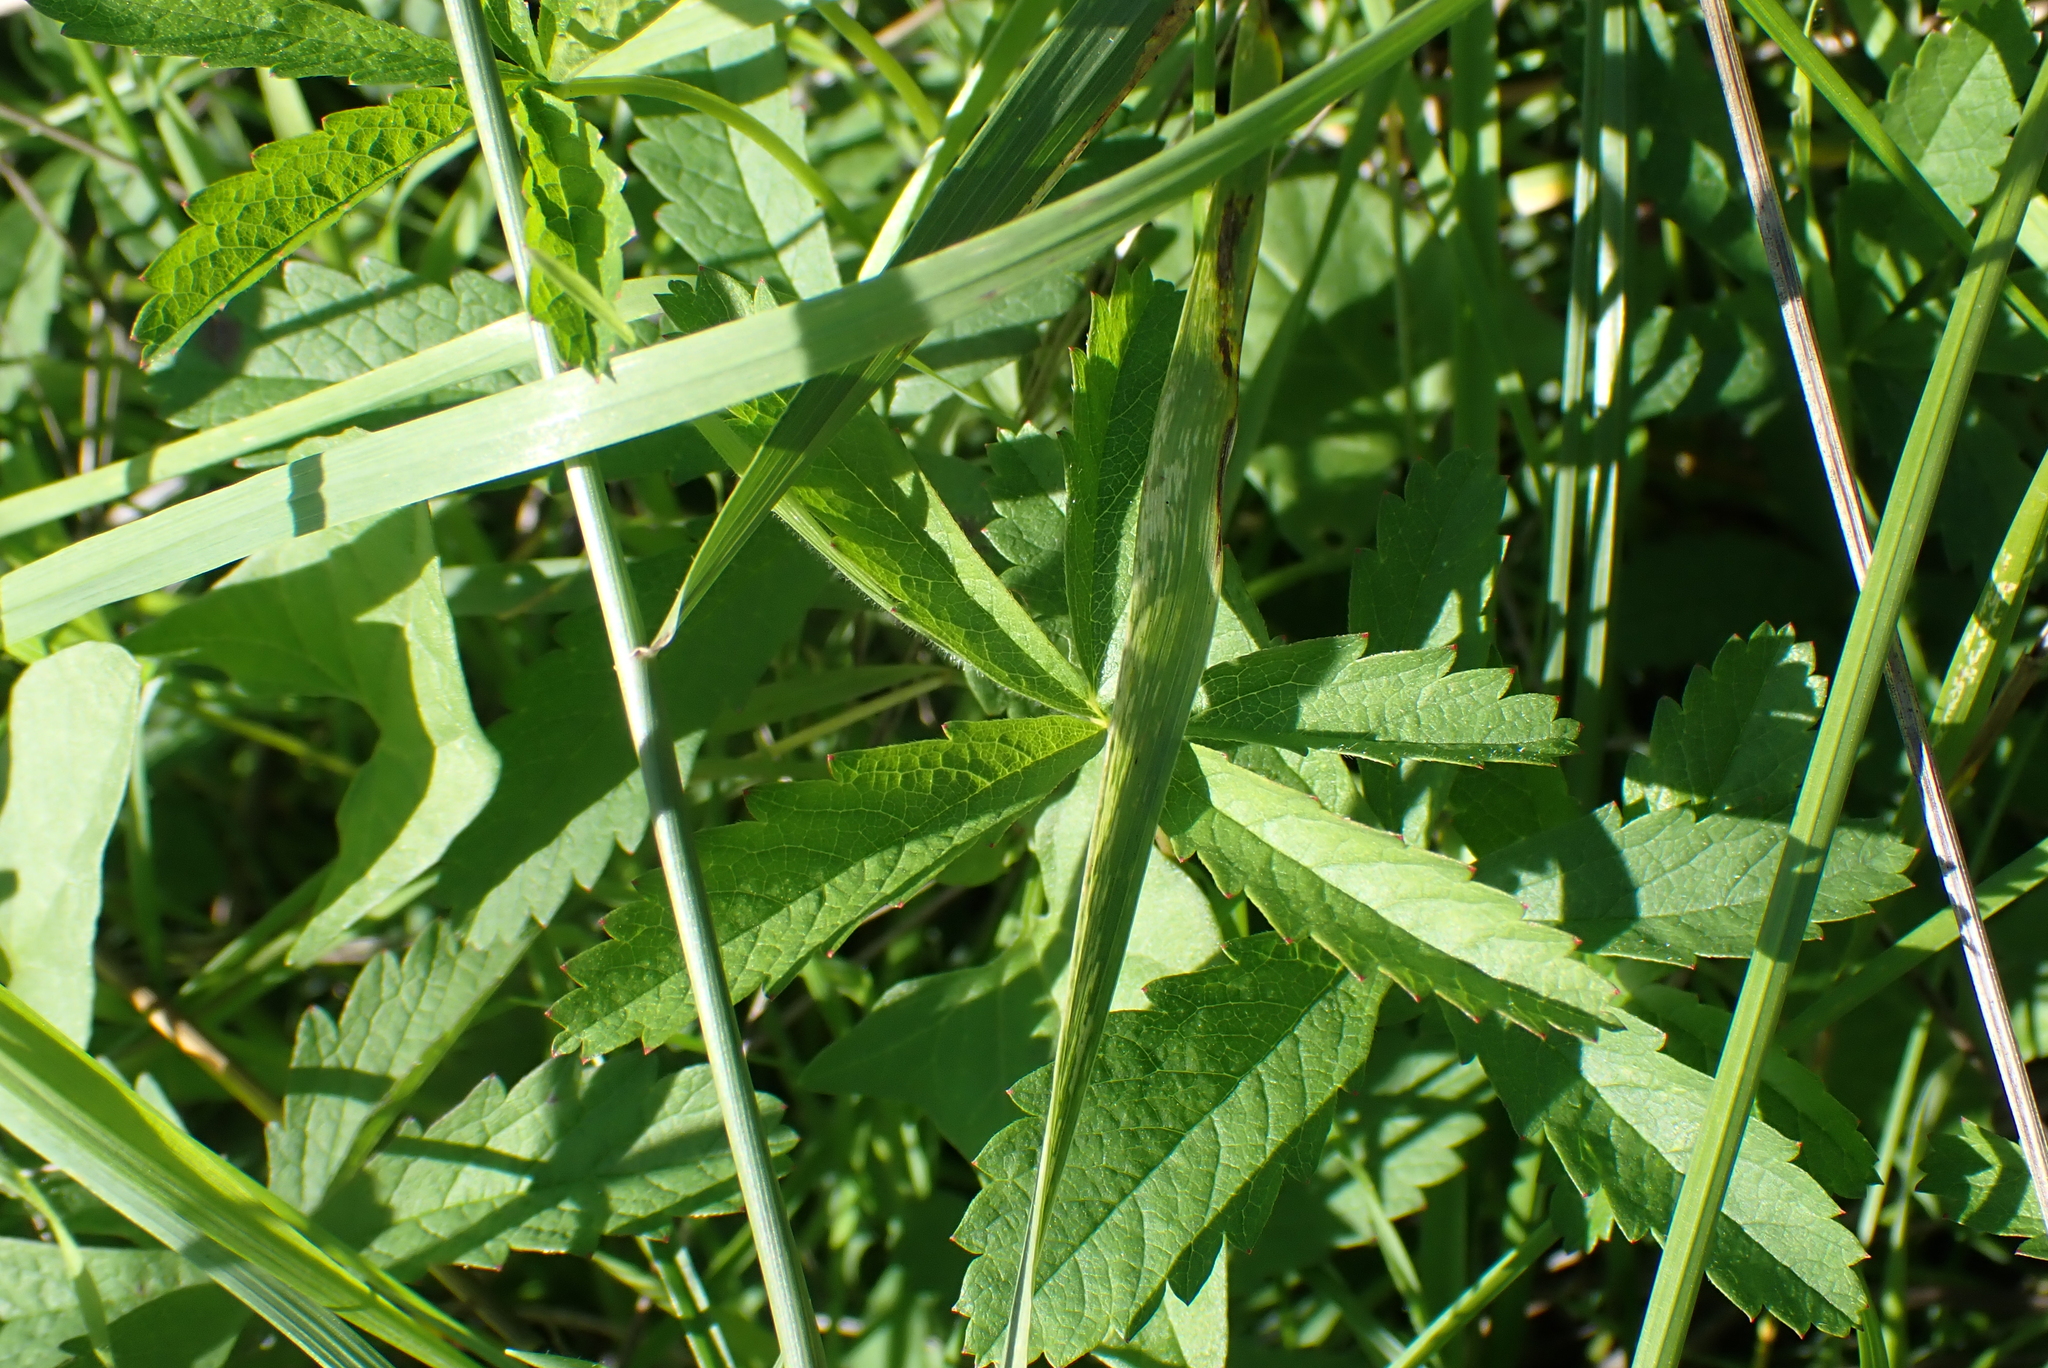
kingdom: Plantae
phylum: Tracheophyta
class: Magnoliopsida
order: Rosales
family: Rosaceae
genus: Potentilla
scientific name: Potentilla reptans
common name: Creeping cinquefoil
